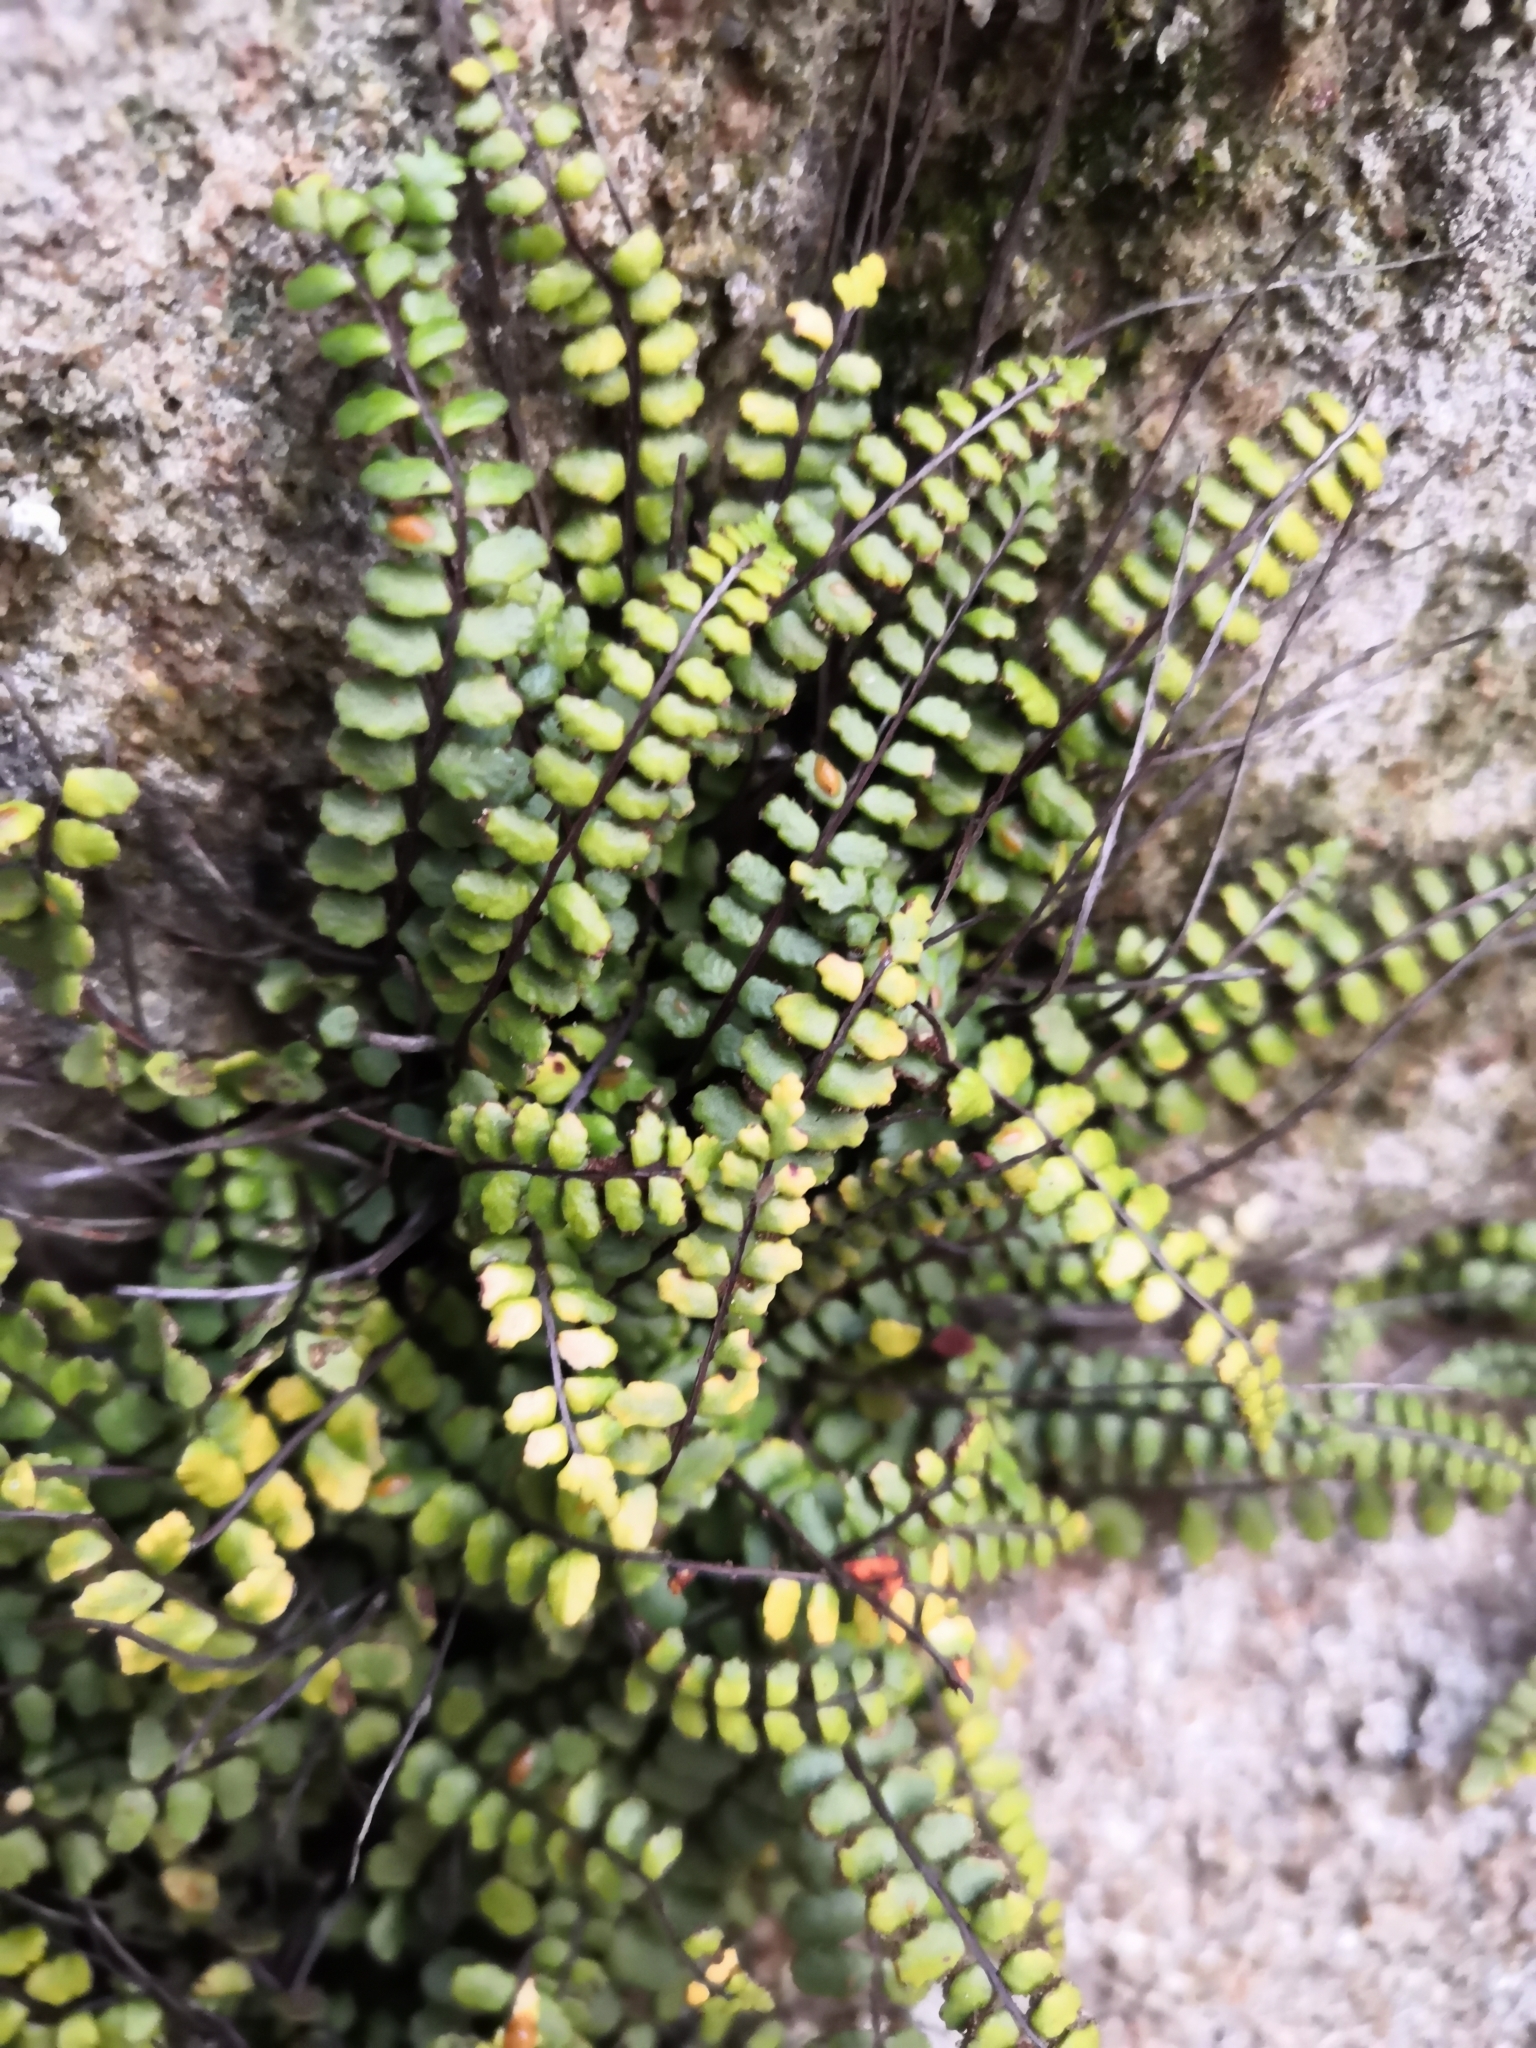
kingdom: Plantae
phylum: Tracheophyta
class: Polypodiopsida
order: Polypodiales
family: Aspleniaceae
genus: Asplenium
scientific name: Asplenium trichomanes
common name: Maidenhair spleenwort
